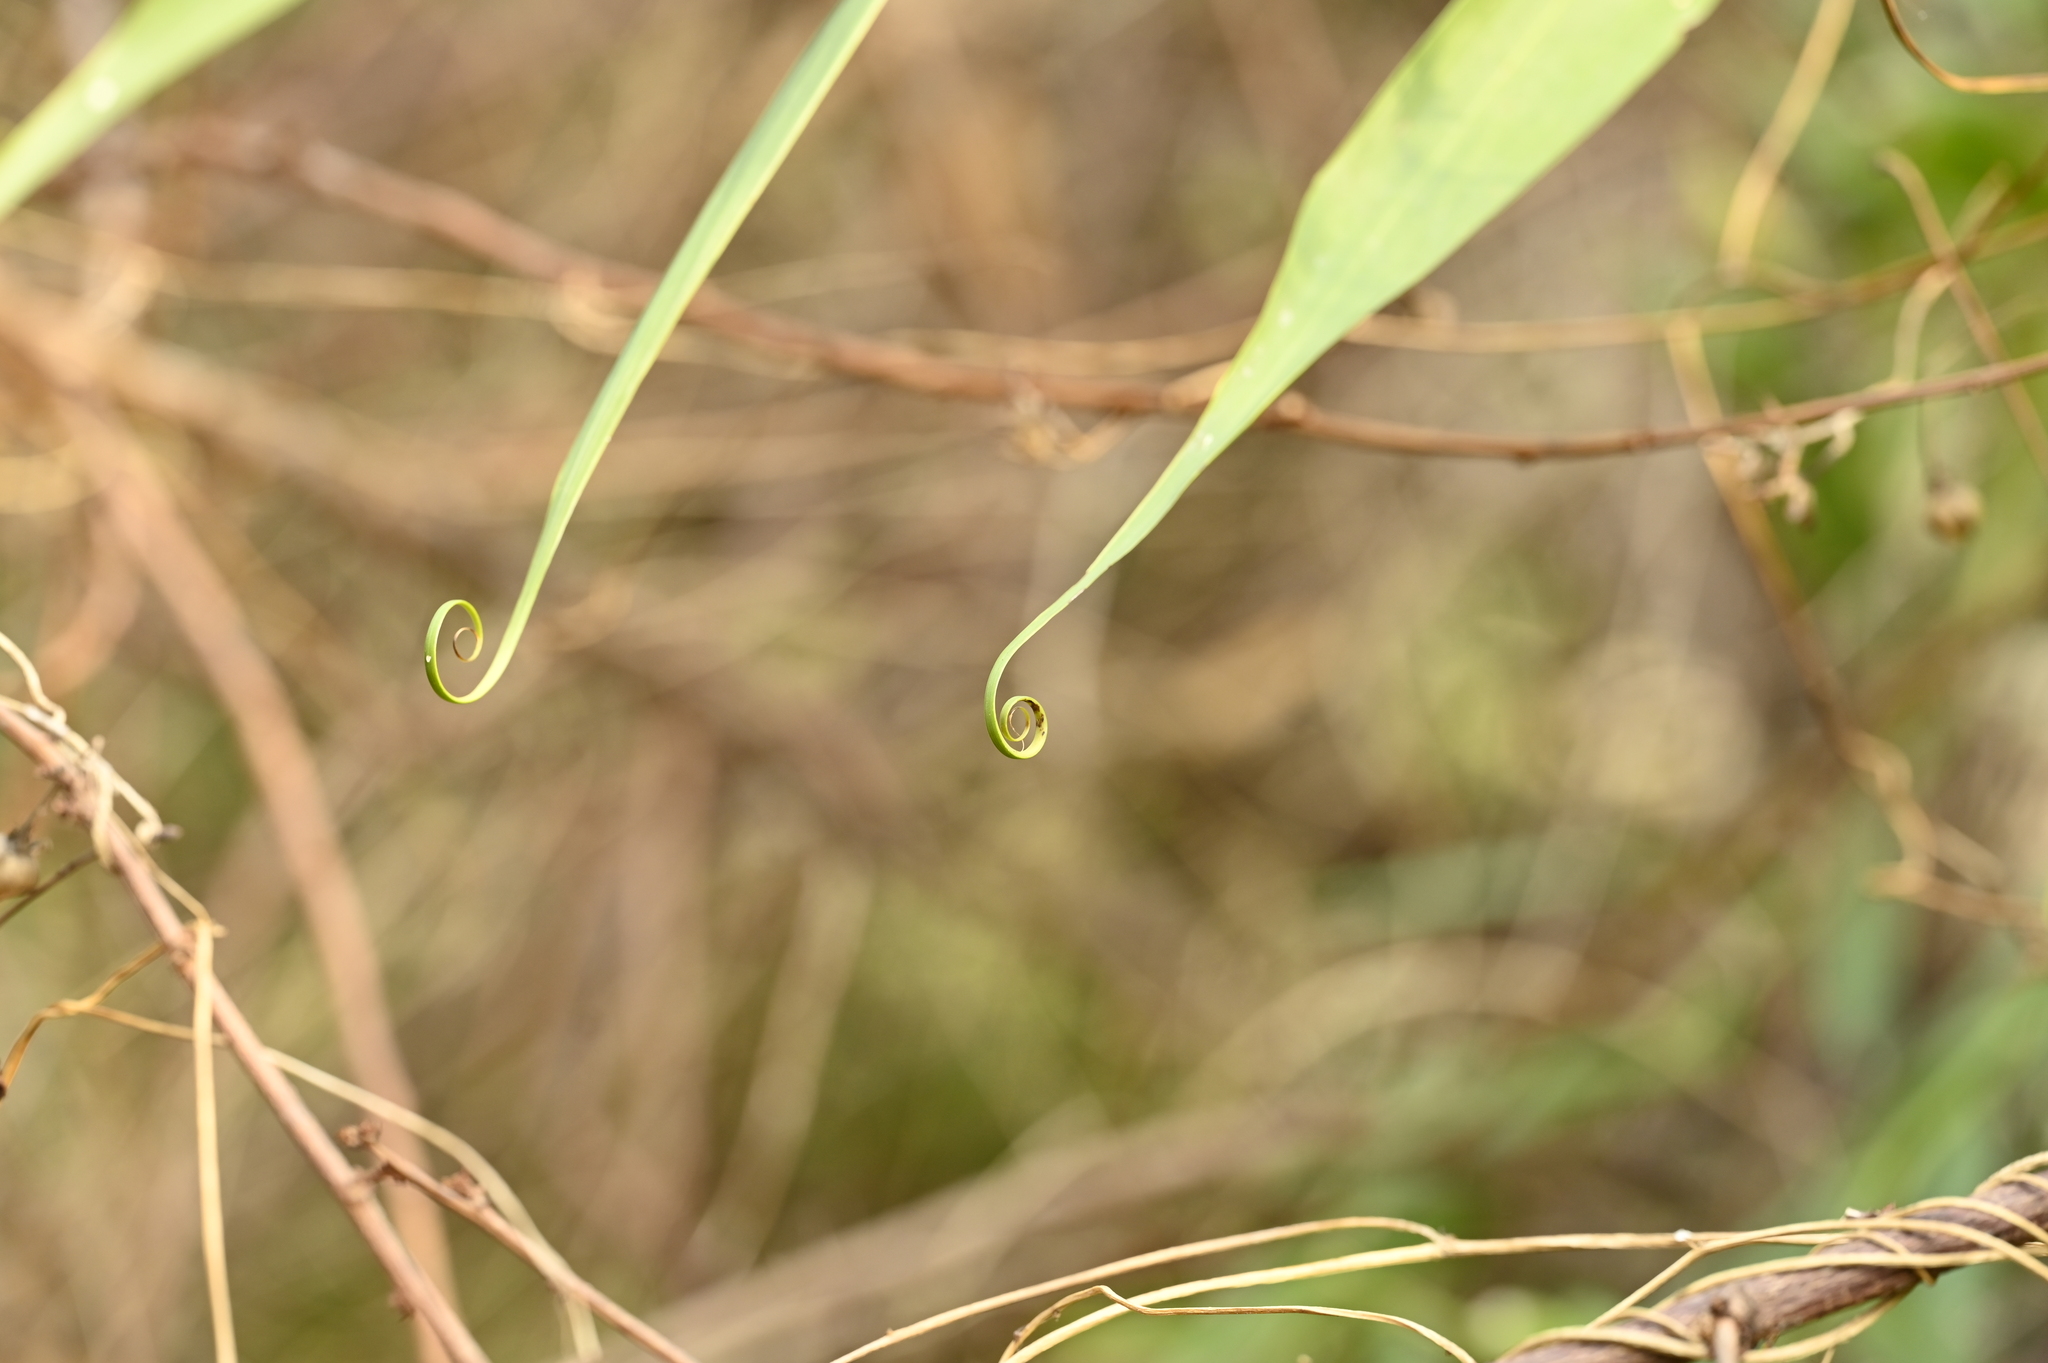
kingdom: Plantae
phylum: Tracheophyta
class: Liliopsida
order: Poales
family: Flagellariaceae
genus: Flagellaria
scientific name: Flagellaria indica
